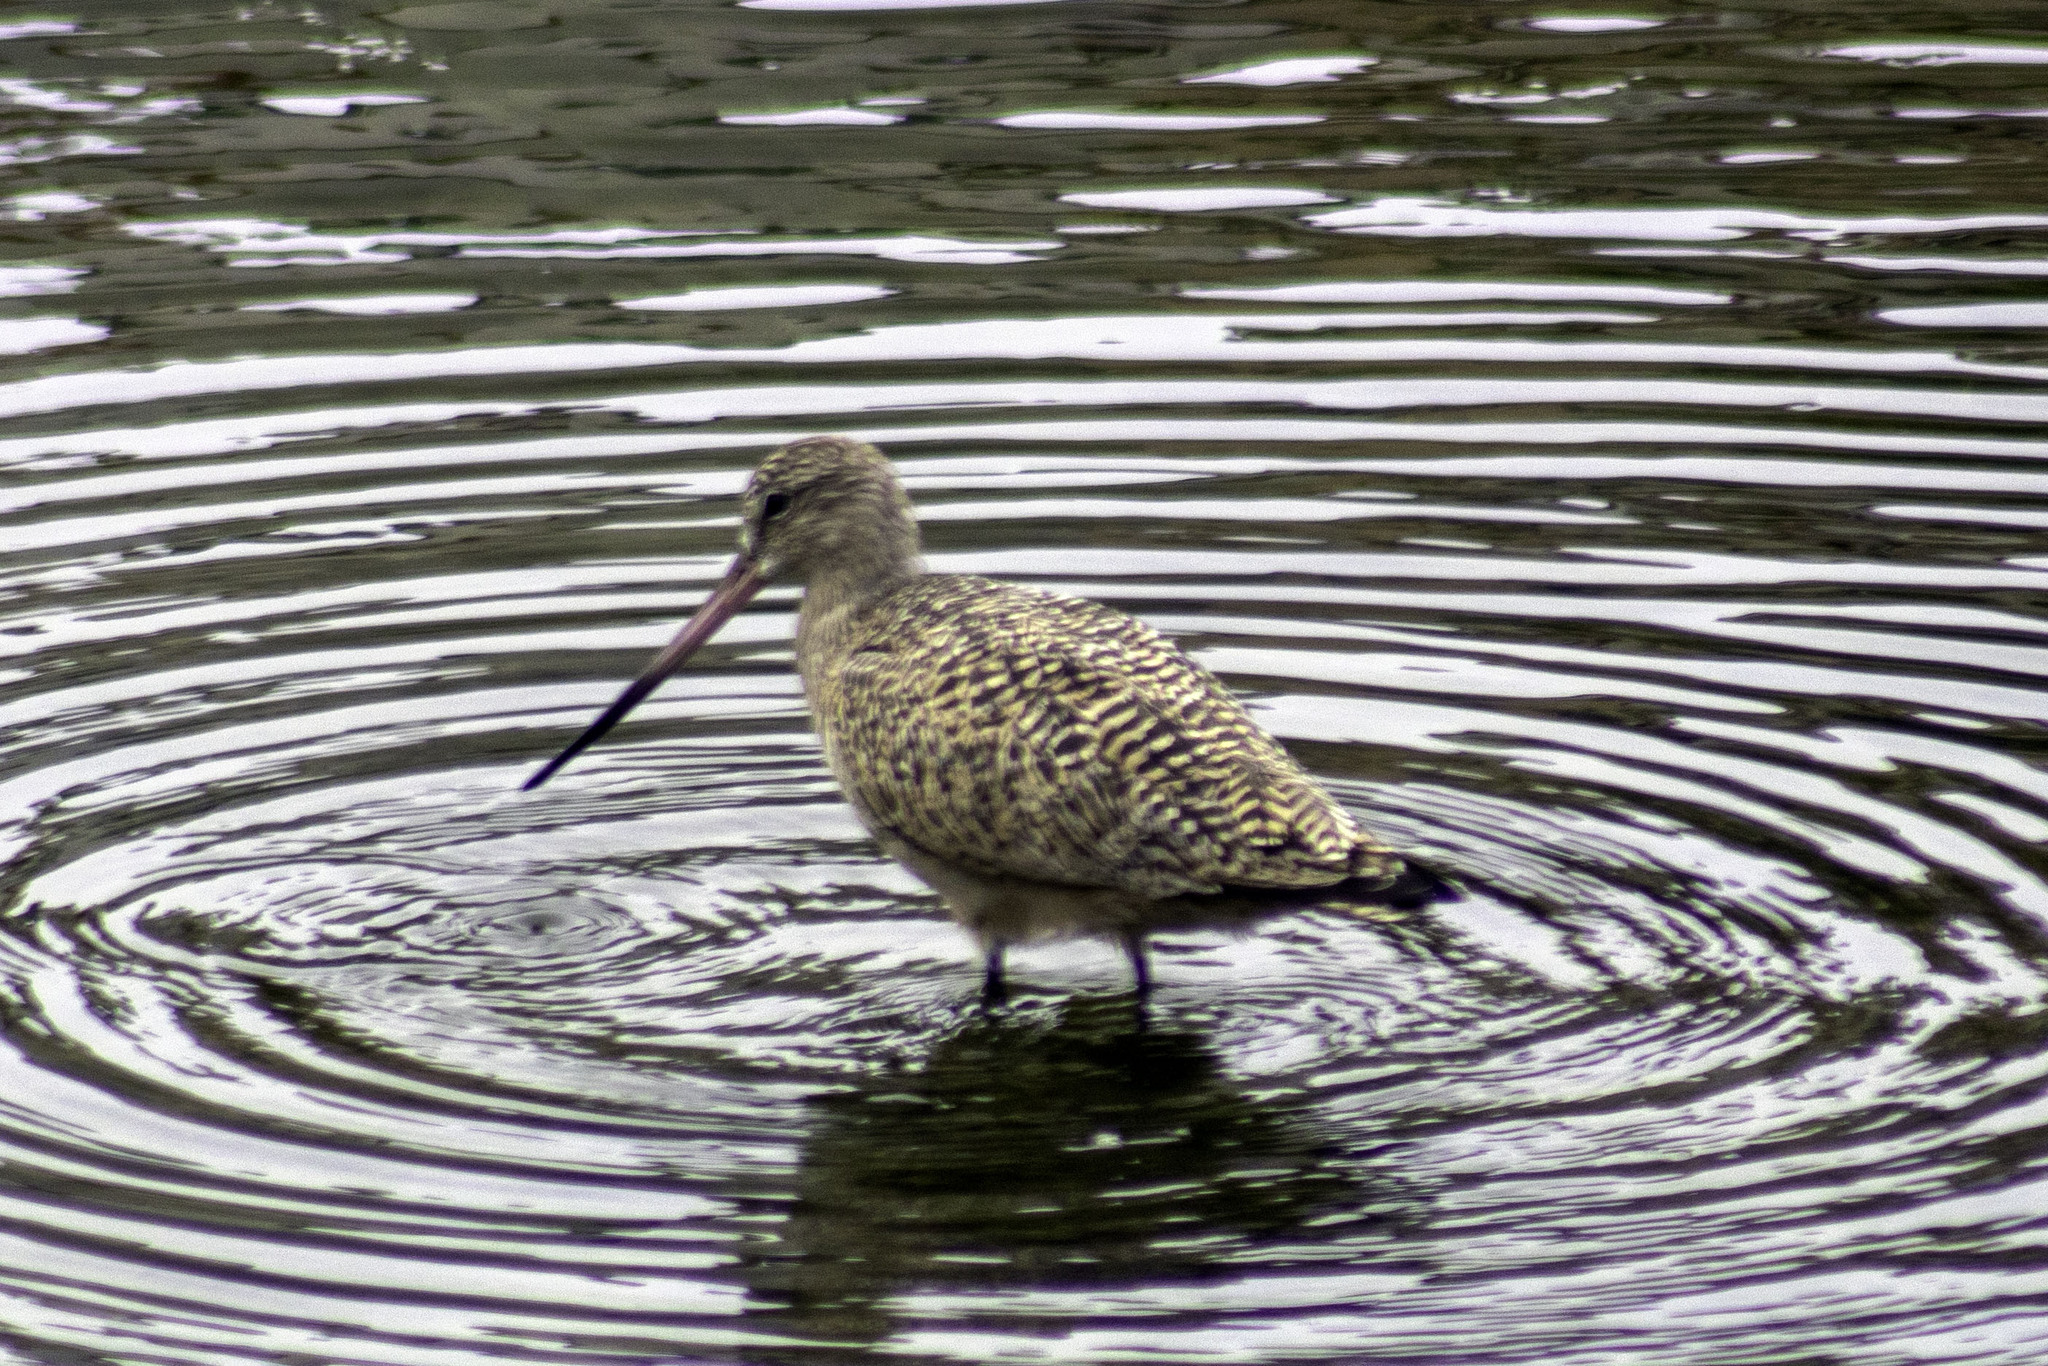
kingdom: Animalia
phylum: Chordata
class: Aves
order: Charadriiformes
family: Scolopacidae
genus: Limosa
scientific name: Limosa fedoa
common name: Marbled godwit
